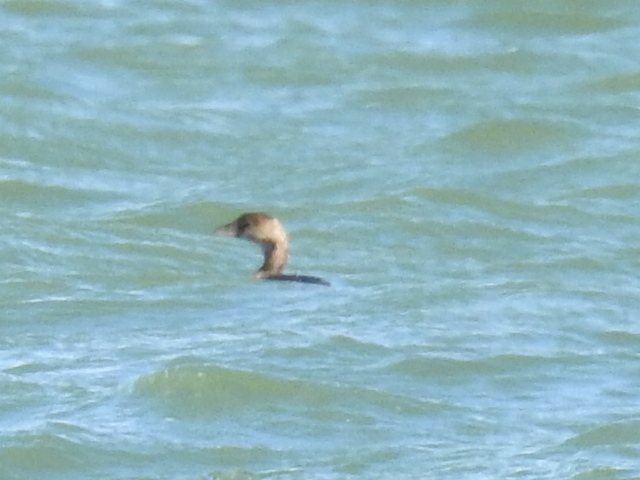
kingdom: Animalia
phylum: Chordata
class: Aves
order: Podicipediformes
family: Podicipedidae
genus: Podilymbus
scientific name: Podilymbus podiceps
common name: Pied-billed grebe
